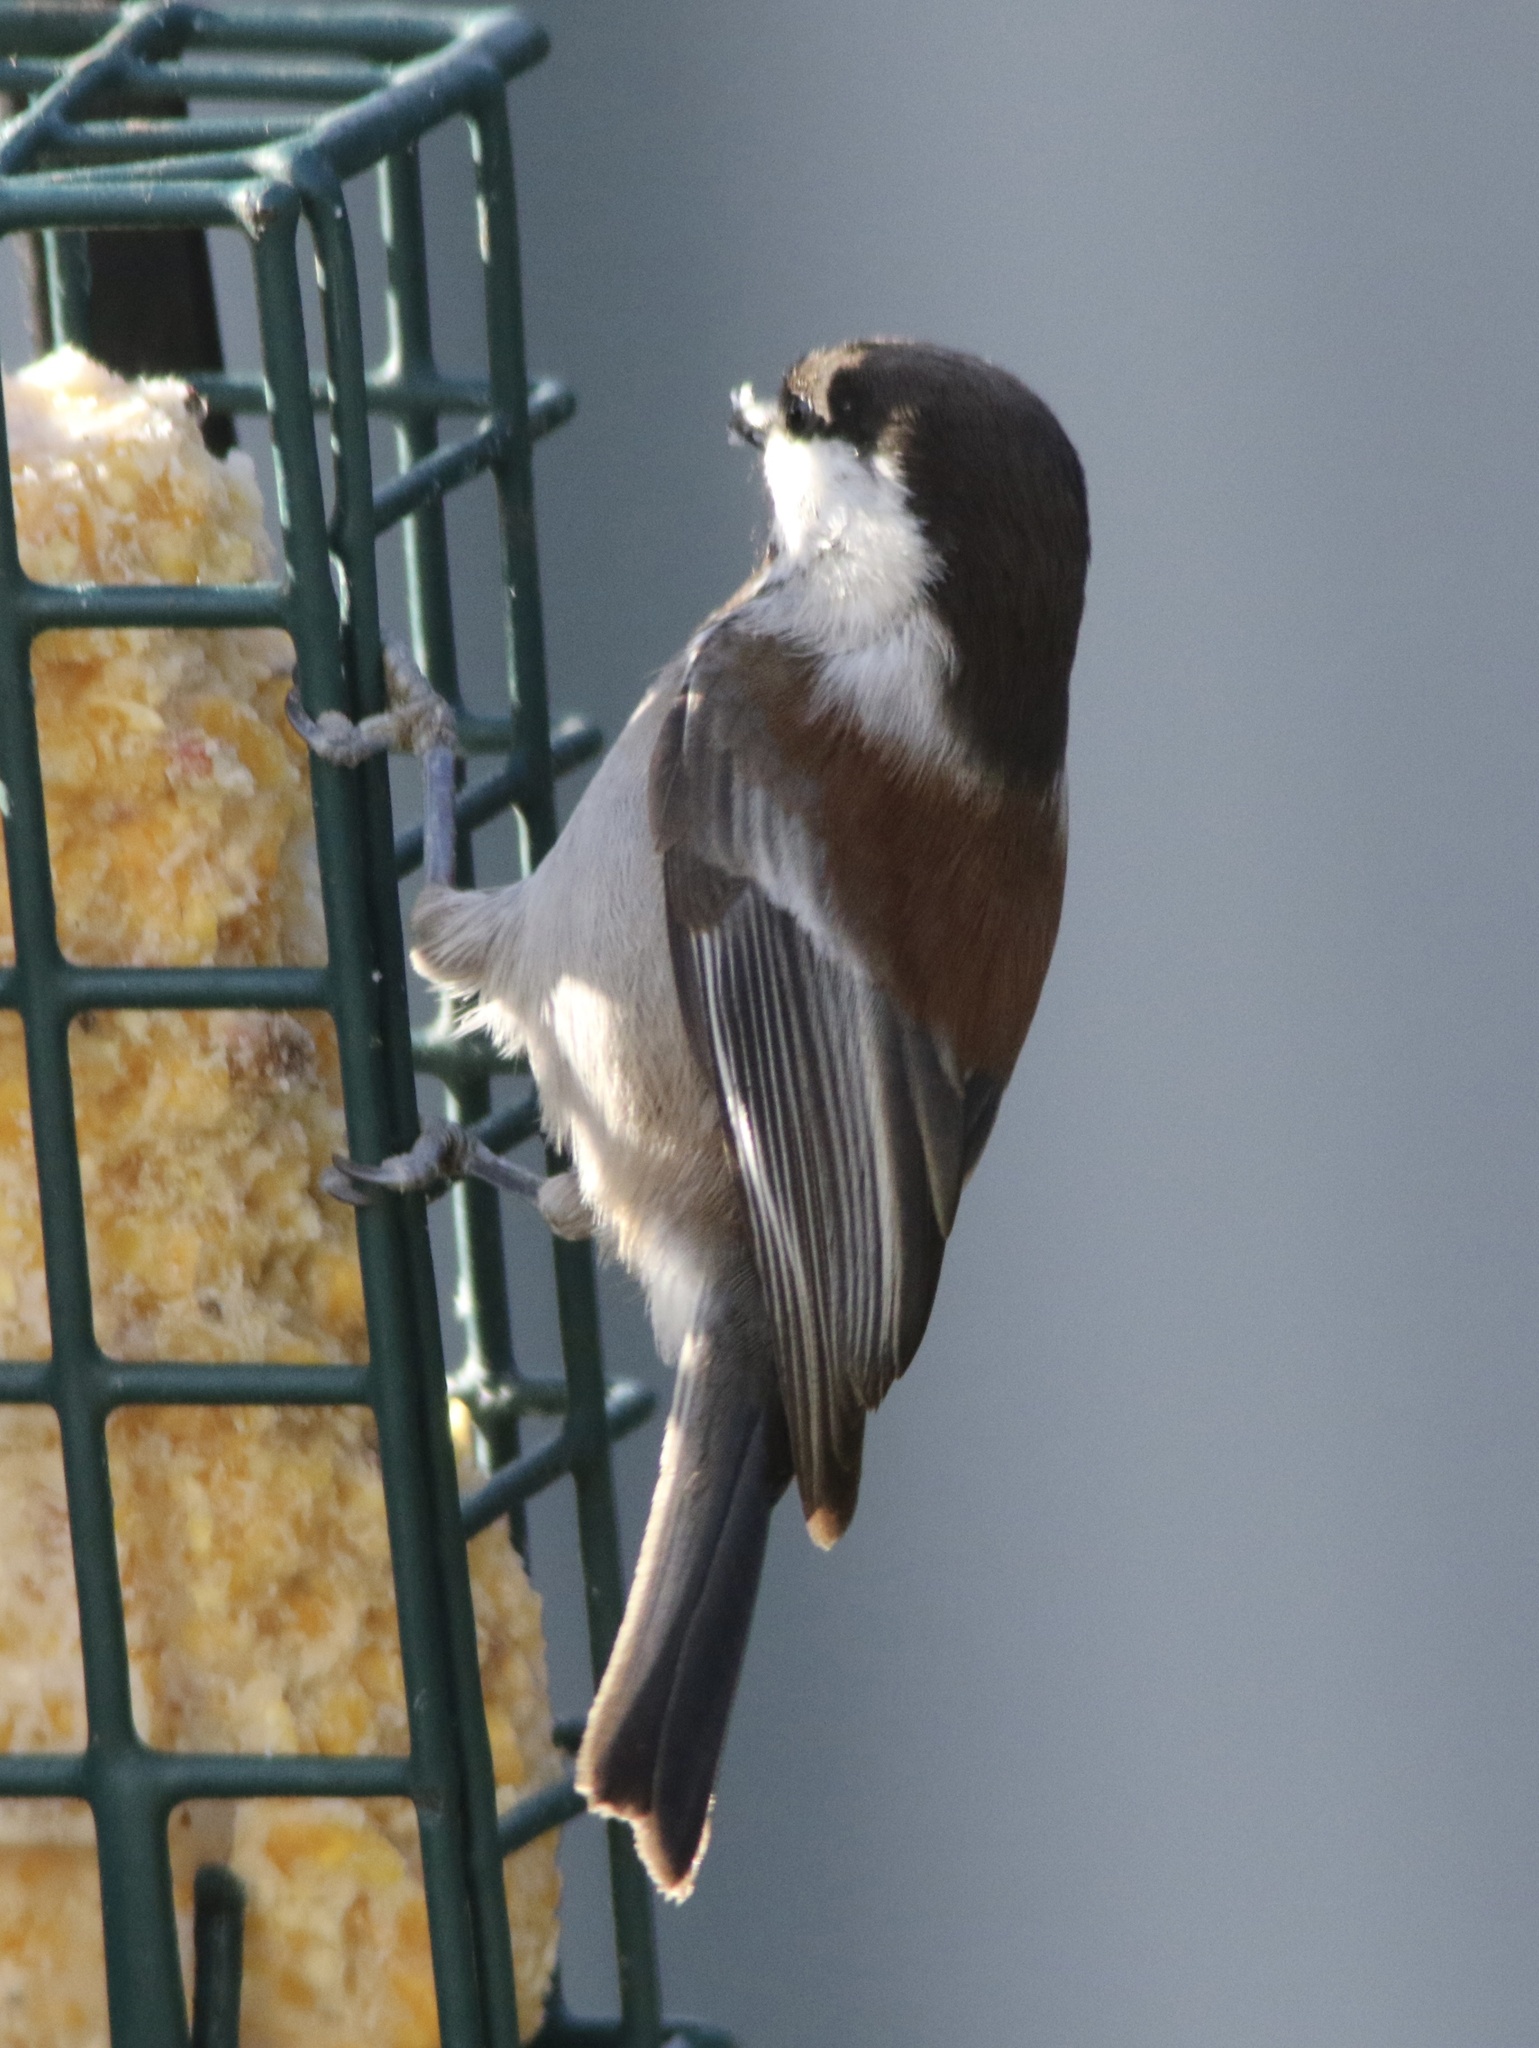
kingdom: Animalia
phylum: Chordata
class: Aves
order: Passeriformes
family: Paridae
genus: Poecile
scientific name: Poecile rufescens
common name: Chestnut-backed chickadee
